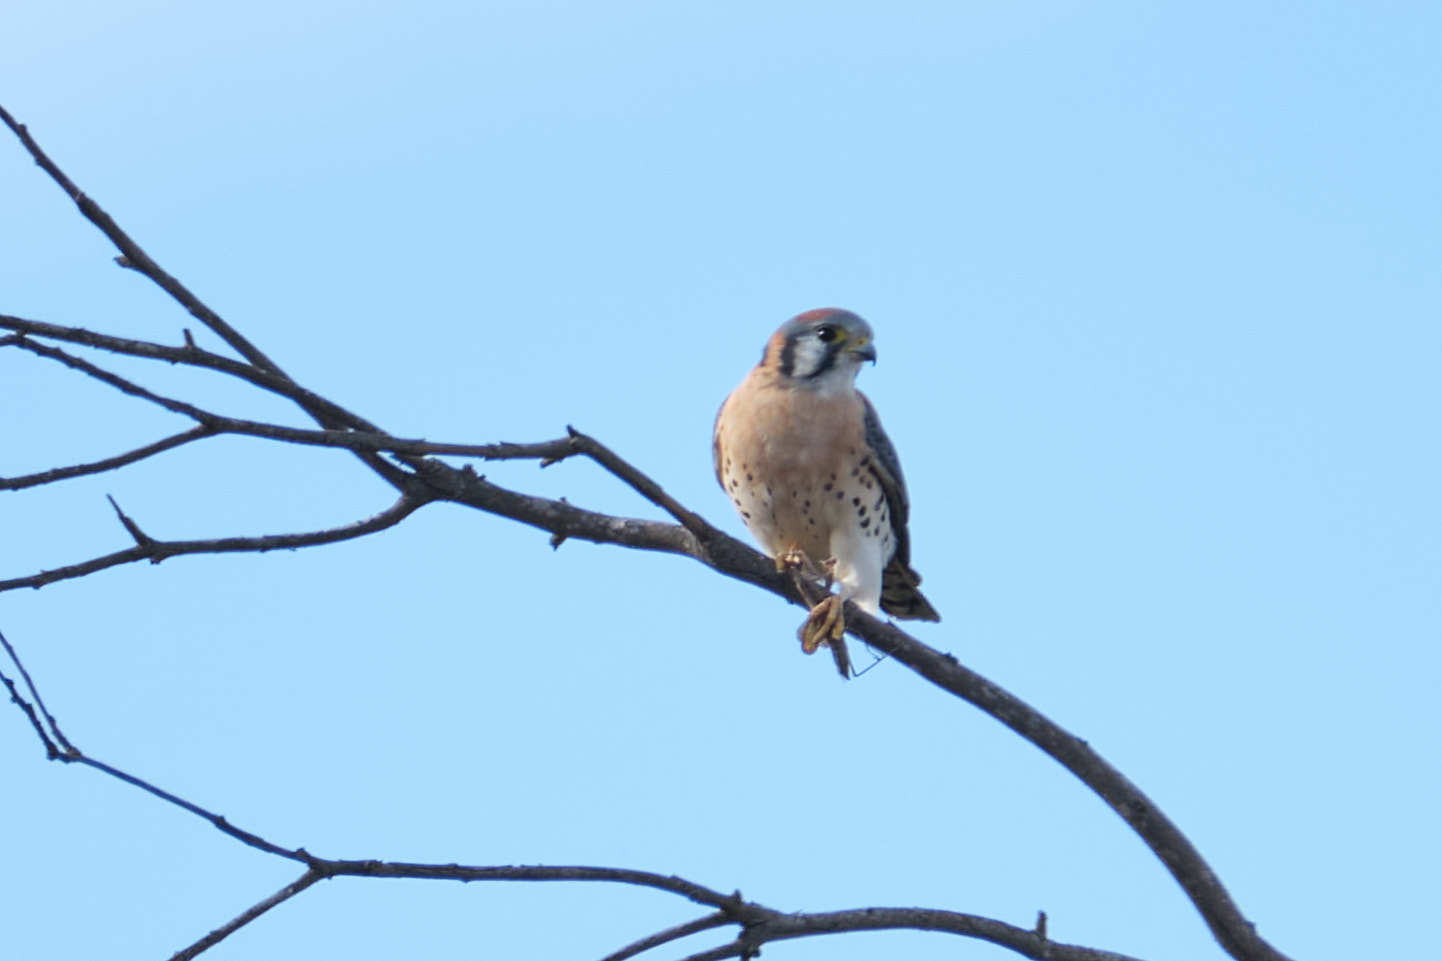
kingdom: Animalia
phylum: Chordata
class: Aves
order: Falconiformes
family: Falconidae
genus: Falco
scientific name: Falco sparverius
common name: American kestrel
